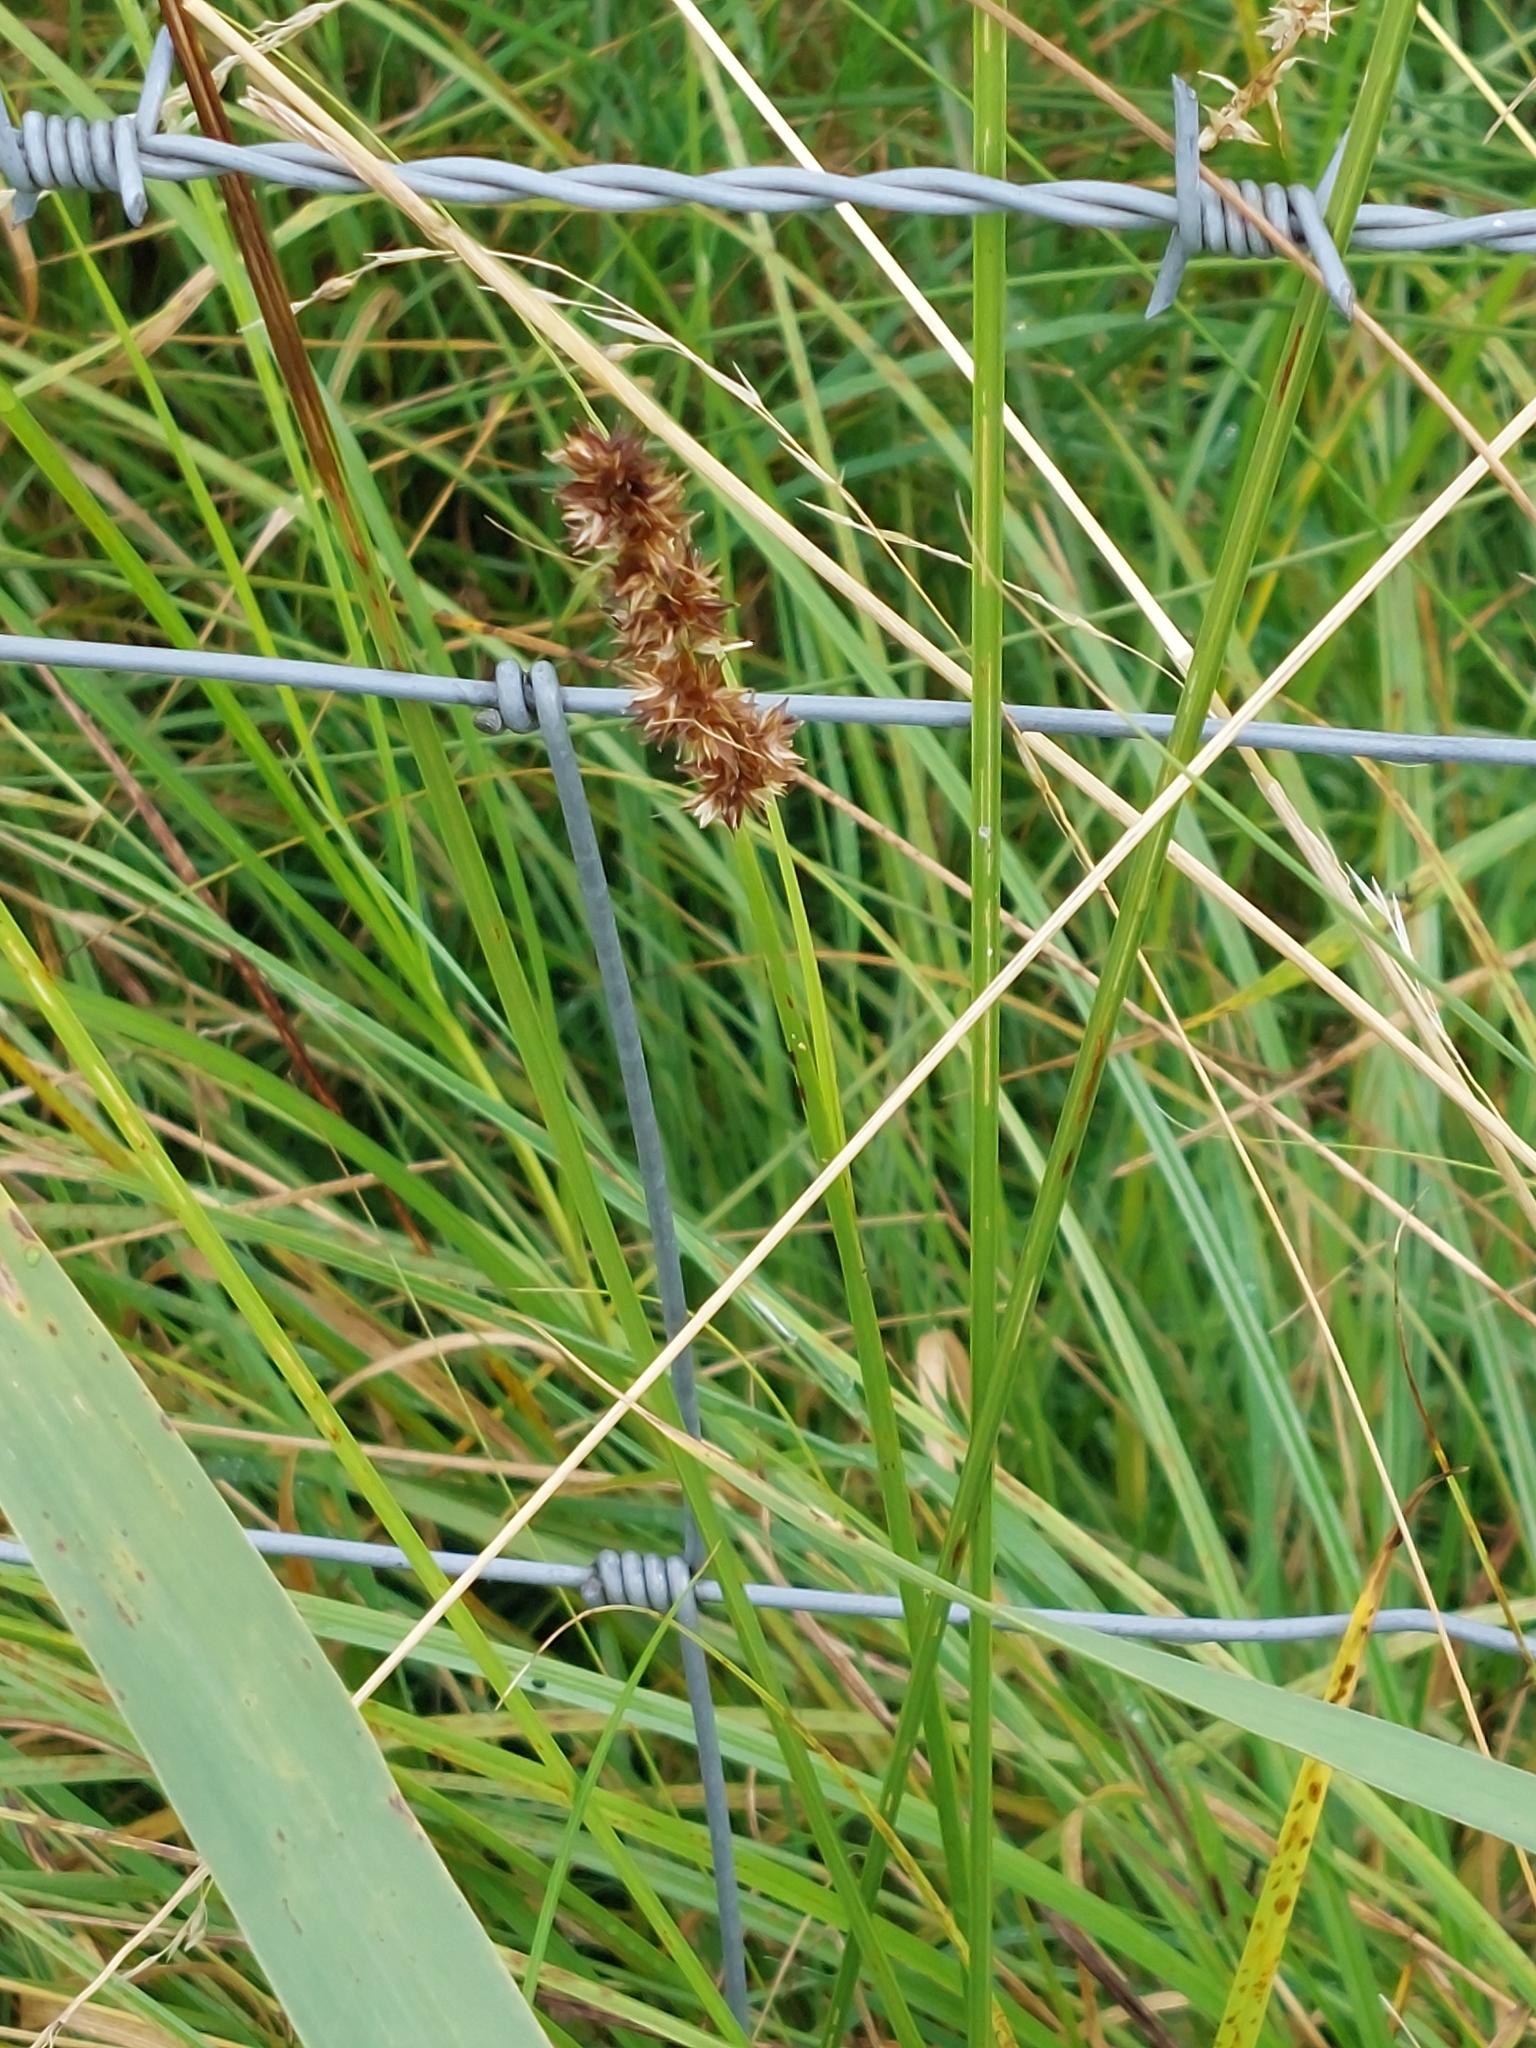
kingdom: Plantae
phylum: Tracheophyta
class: Liliopsida
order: Poales
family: Cyperaceae
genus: Carex
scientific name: Carex otrubae
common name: False fox-sedge
